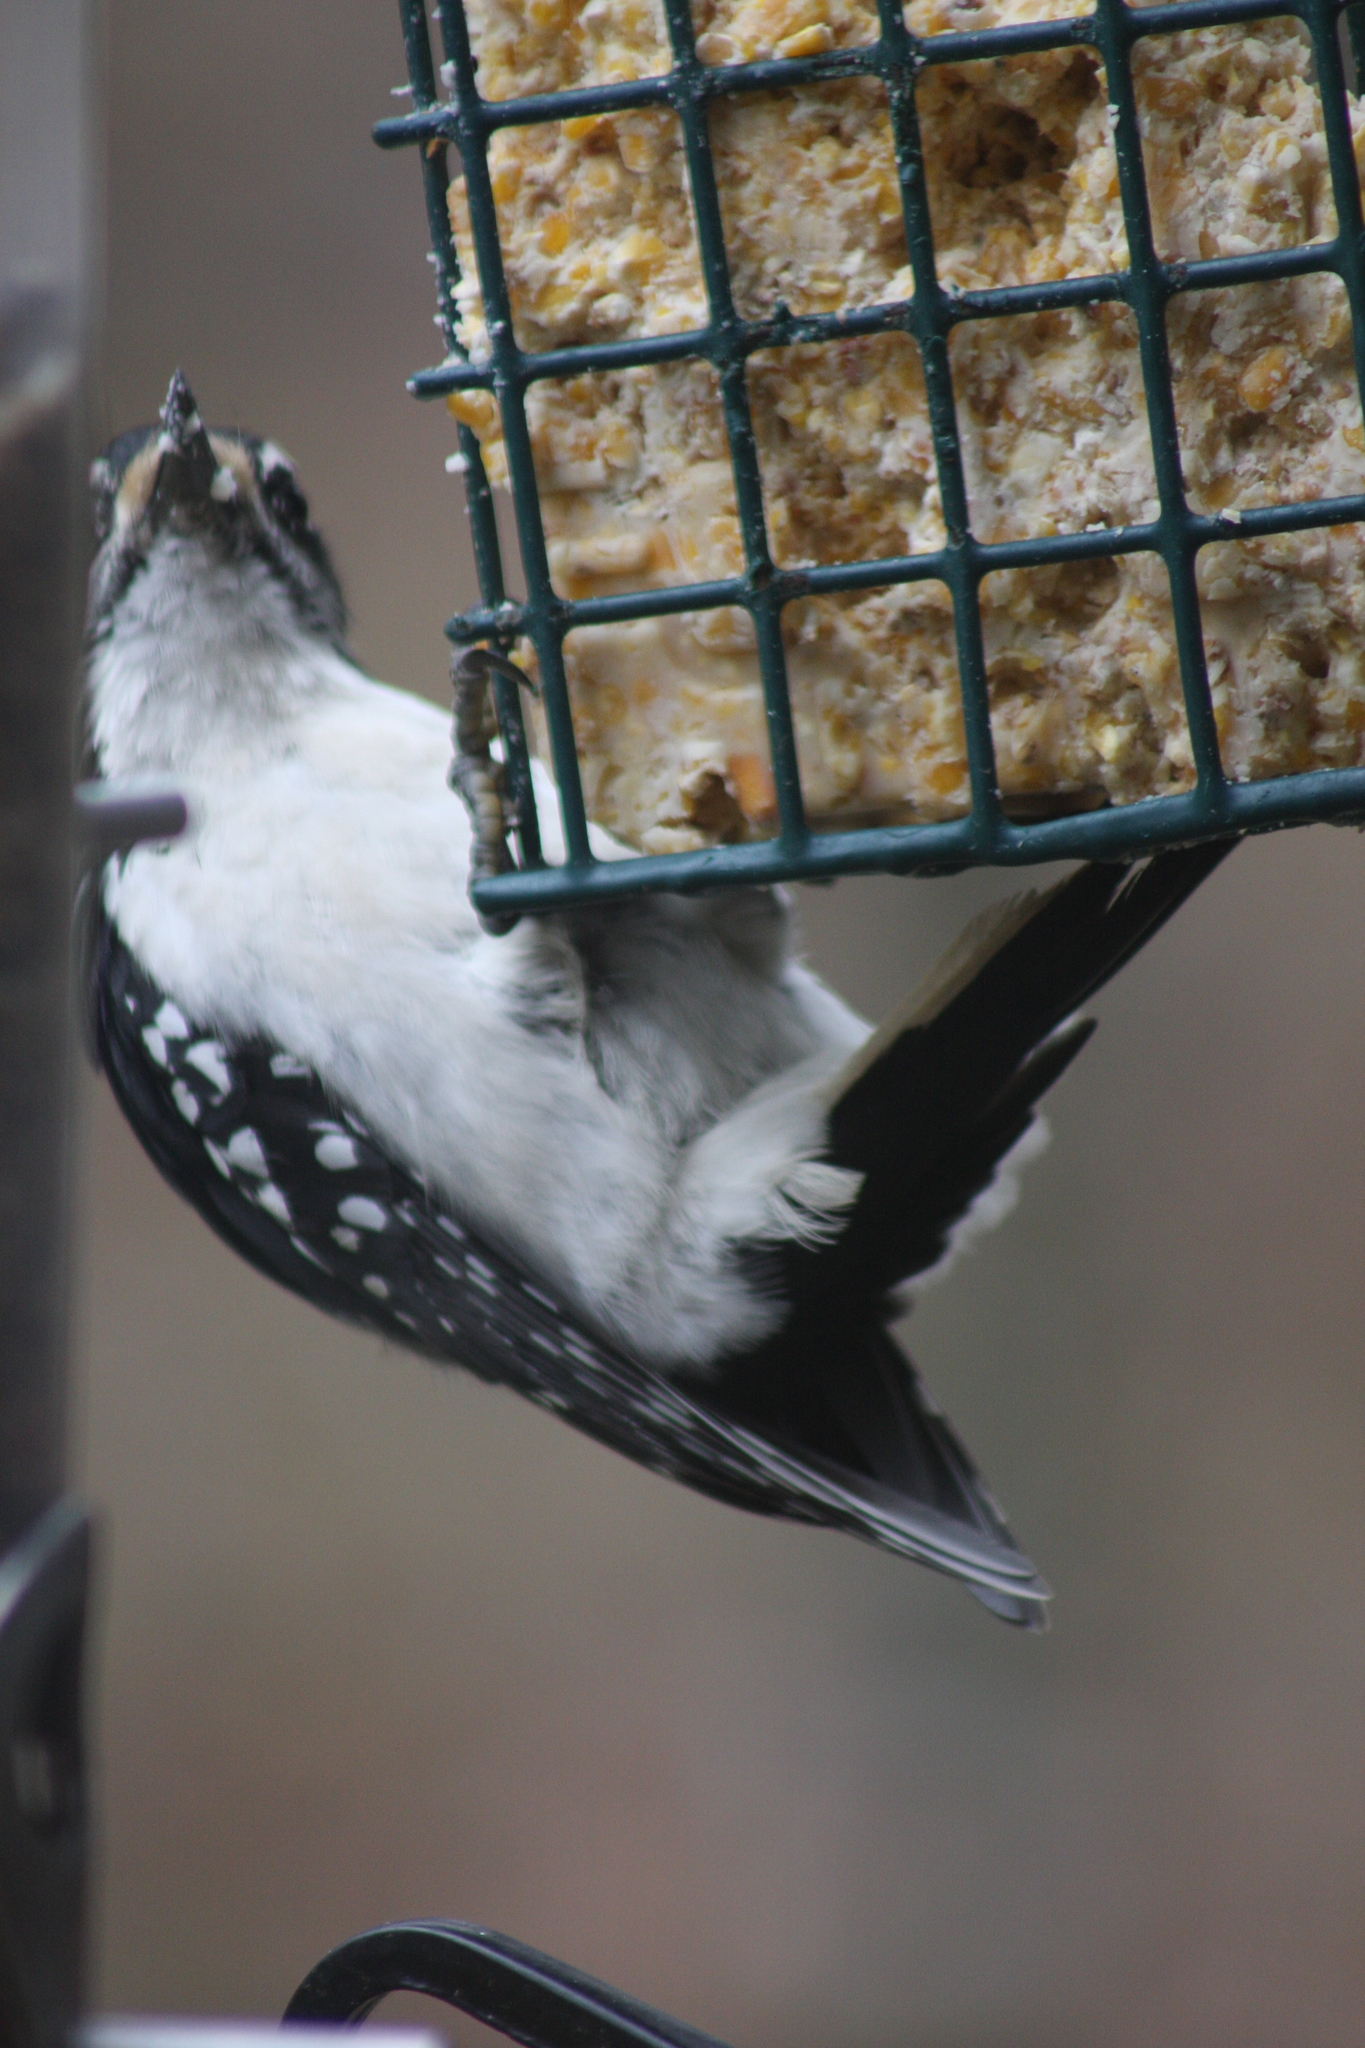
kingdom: Animalia
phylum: Chordata
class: Aves
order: Piciformes
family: Picidae
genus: Leuconotopicus
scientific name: Leuconotopicus villosus
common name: Hairy woodpecker
